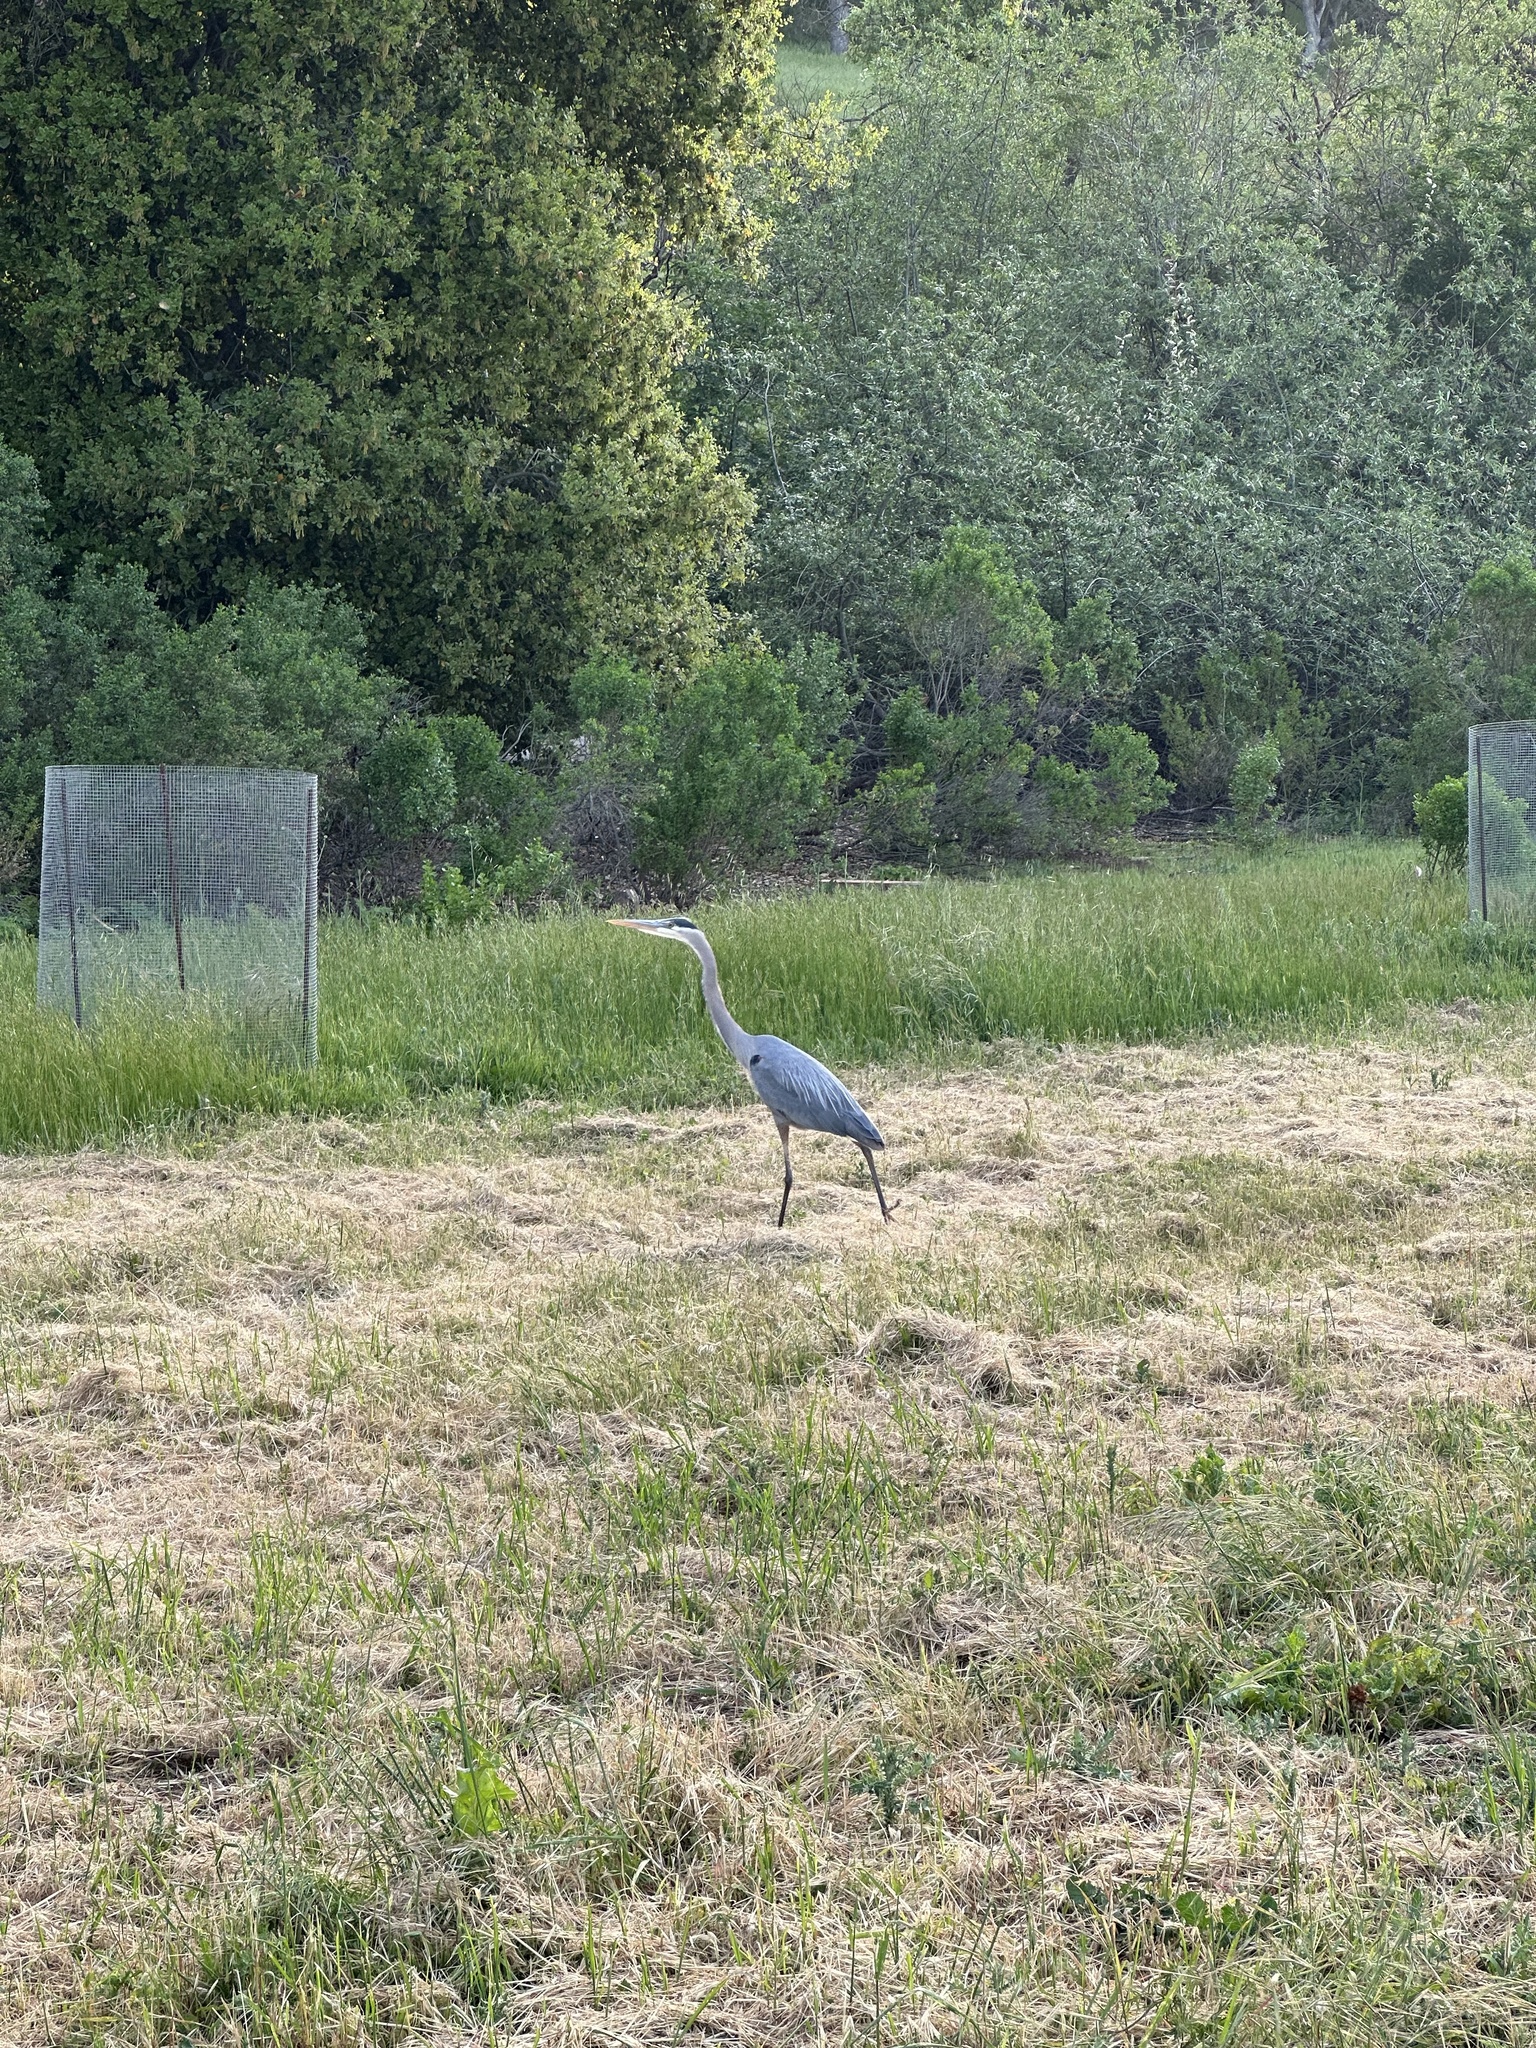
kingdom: Animalia
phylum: Chordata
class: Aves
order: Pelecaniformes
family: Ardeidae
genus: Ardea
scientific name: Ardea herodias
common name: Great blue heron
